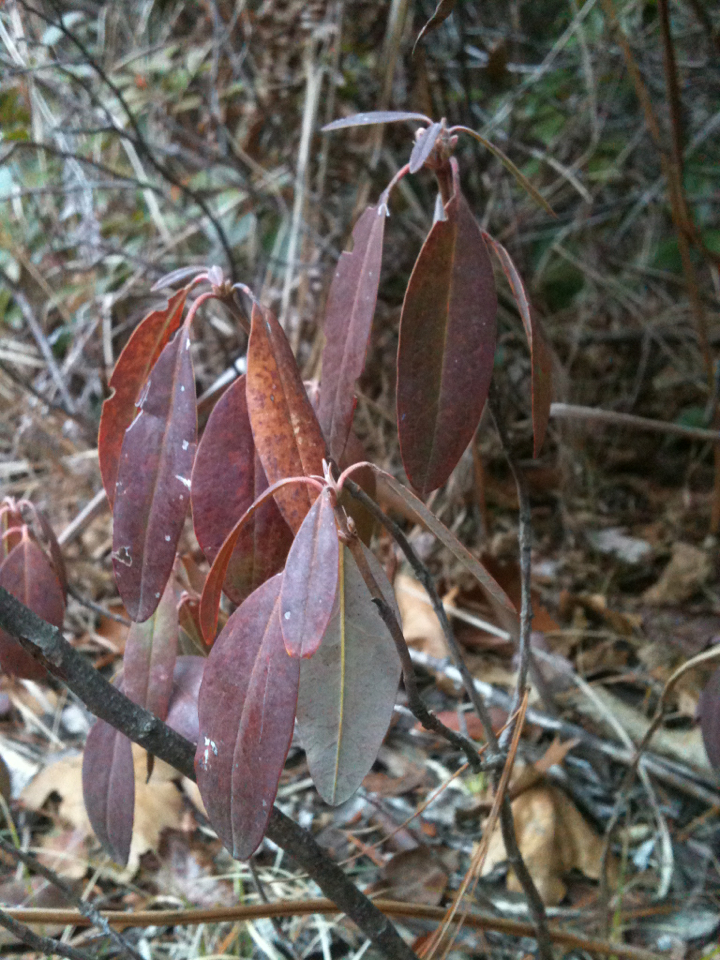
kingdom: Plantae
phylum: Tracheophyta
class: Magnoliopsida
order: Ericales
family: Ericaceae
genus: Kalmia
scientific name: Kalmia angustifolia
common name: Sheep-laurel
